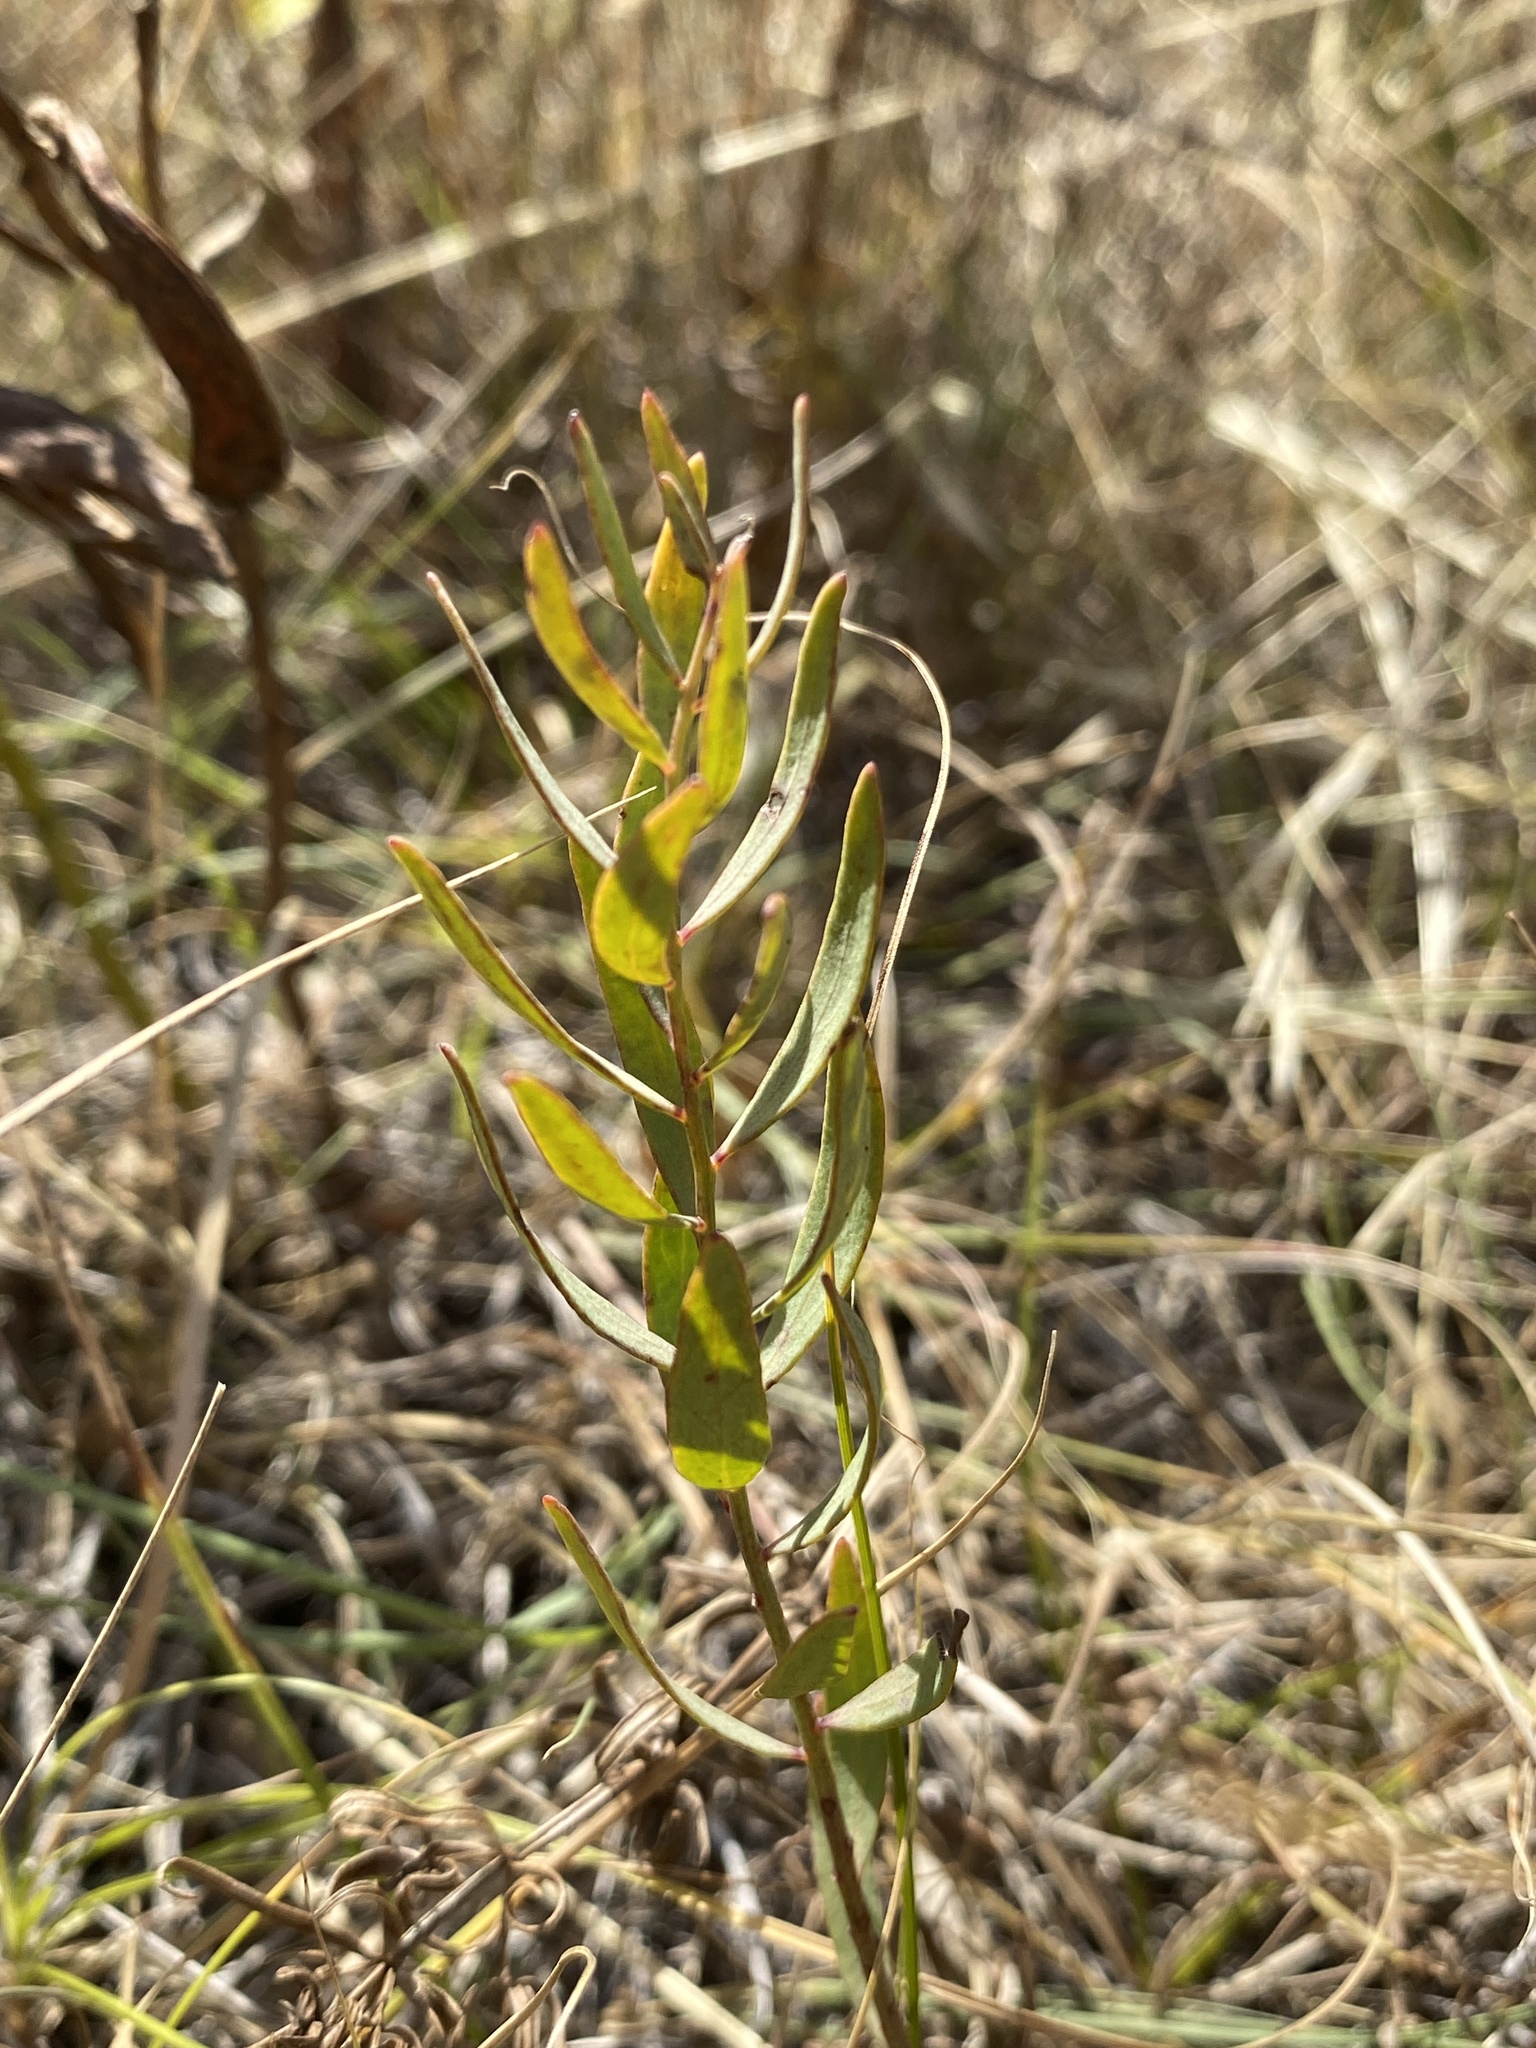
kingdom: Plantae
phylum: Tracheophyta
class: Magnoliopsida
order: Santalales
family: Comandraceae
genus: Comandra
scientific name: Comandra umbellata
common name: Bastard toadflax
